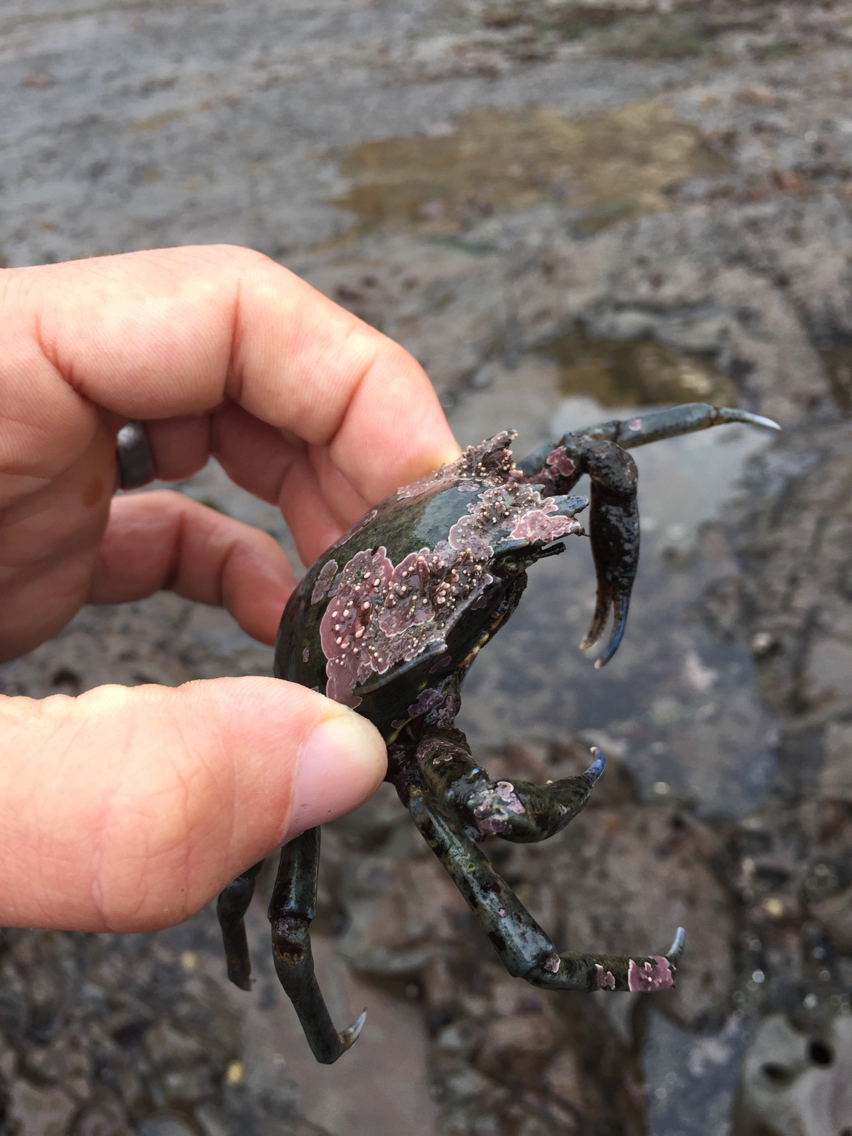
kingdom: Animalia
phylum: Arthropoda
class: Malacostraca
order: Decapoda
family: Epialtidae
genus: Pugettia
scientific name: Pugettia producta
